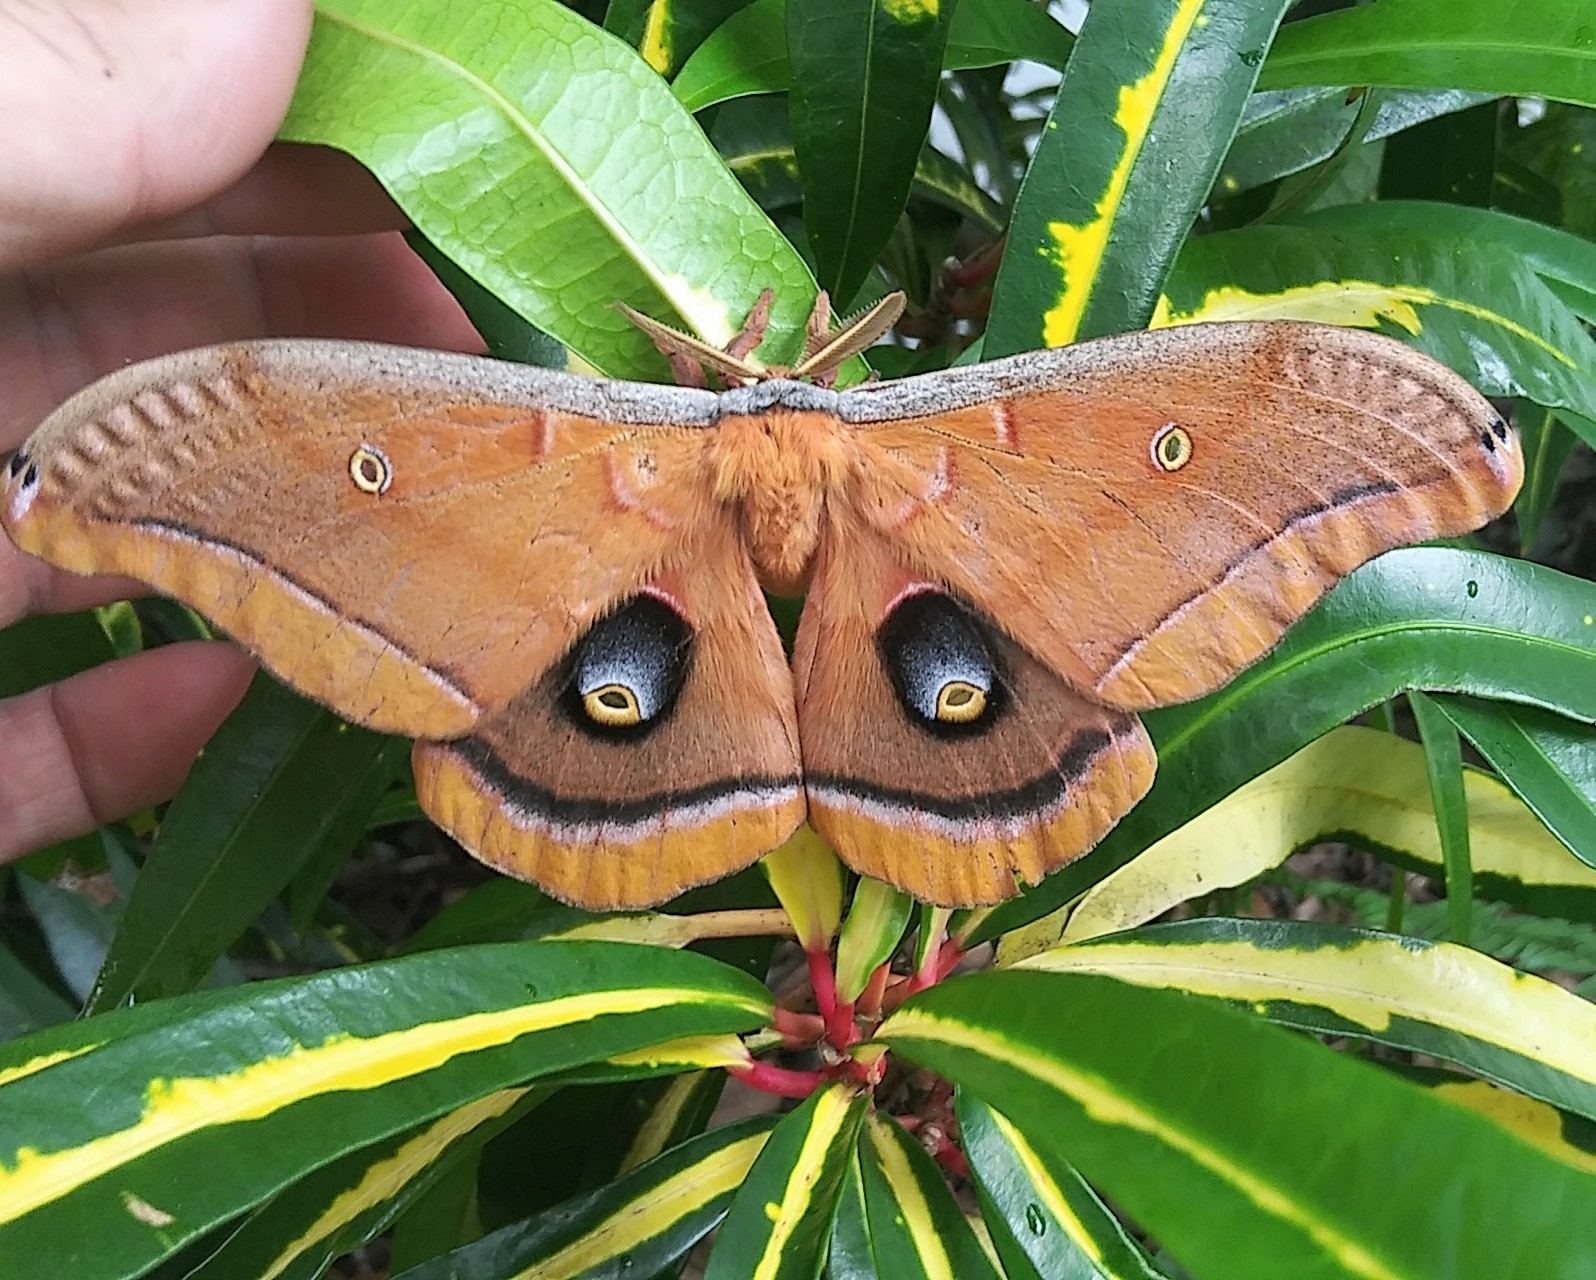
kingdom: Animalia
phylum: Arthropoda
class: Insecta
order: Lepidoptera
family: Saturniidae
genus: Antheraea
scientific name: Antheraea polyphemus
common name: Polyphemus moth
